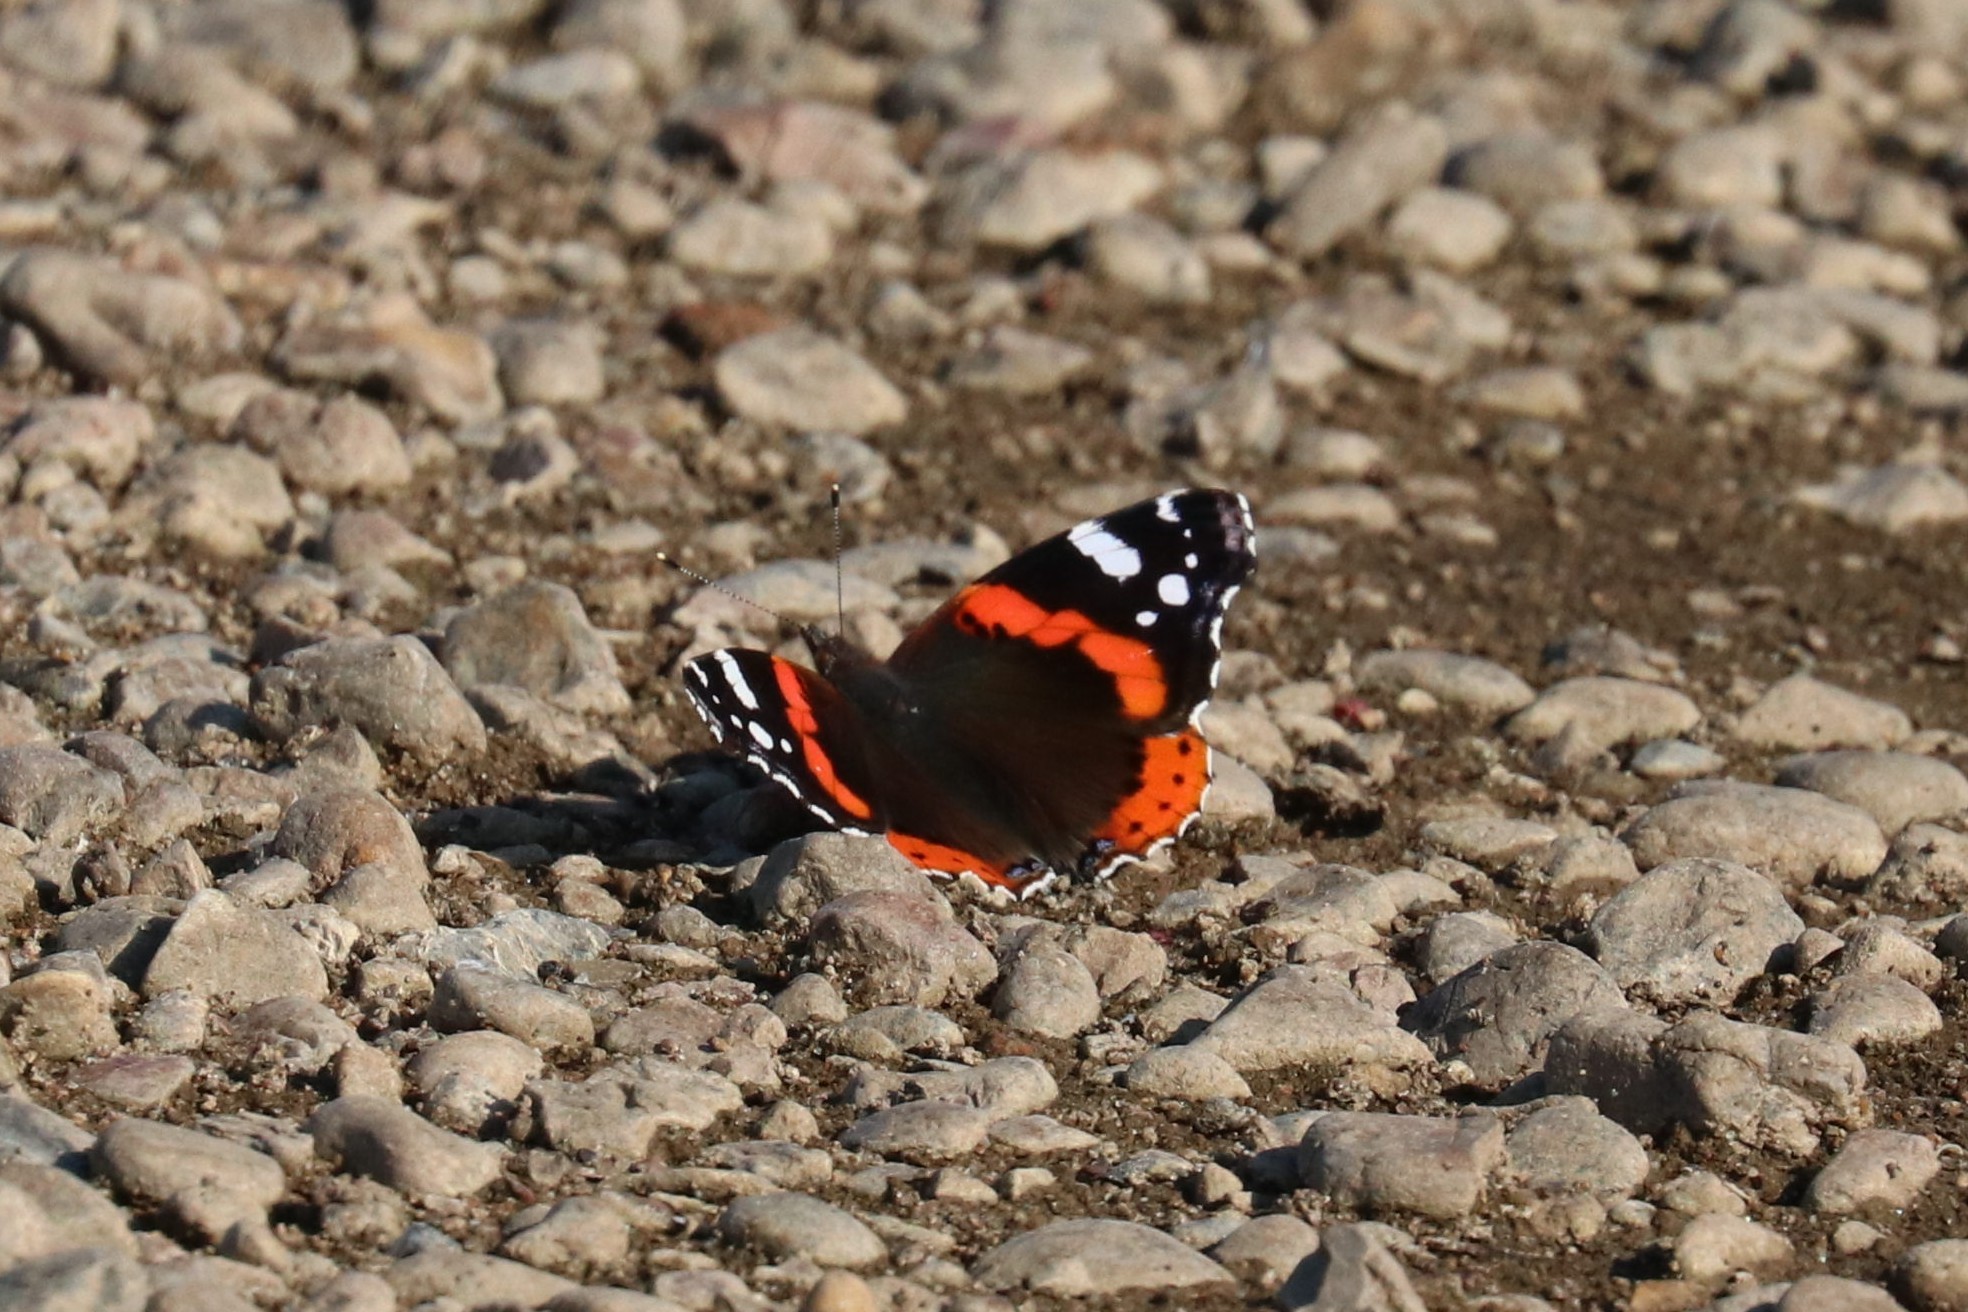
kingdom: Animalia
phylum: Arthropoda
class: Insecta
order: Lepidoptera
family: Nymphalidae
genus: Vanessa
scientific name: Vanessa atalanta
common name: Red admiral
